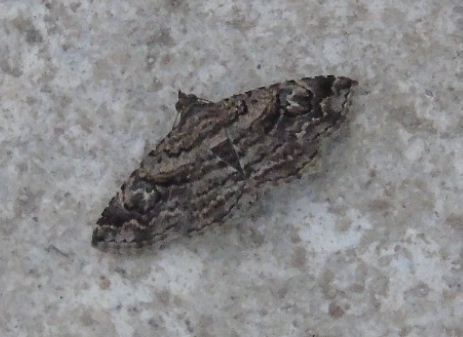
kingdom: Animalia
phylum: Arthropoda
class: Insecta
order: Lepidoptera
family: Erebidae
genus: Toxonprucha
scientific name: Toxonprucha
